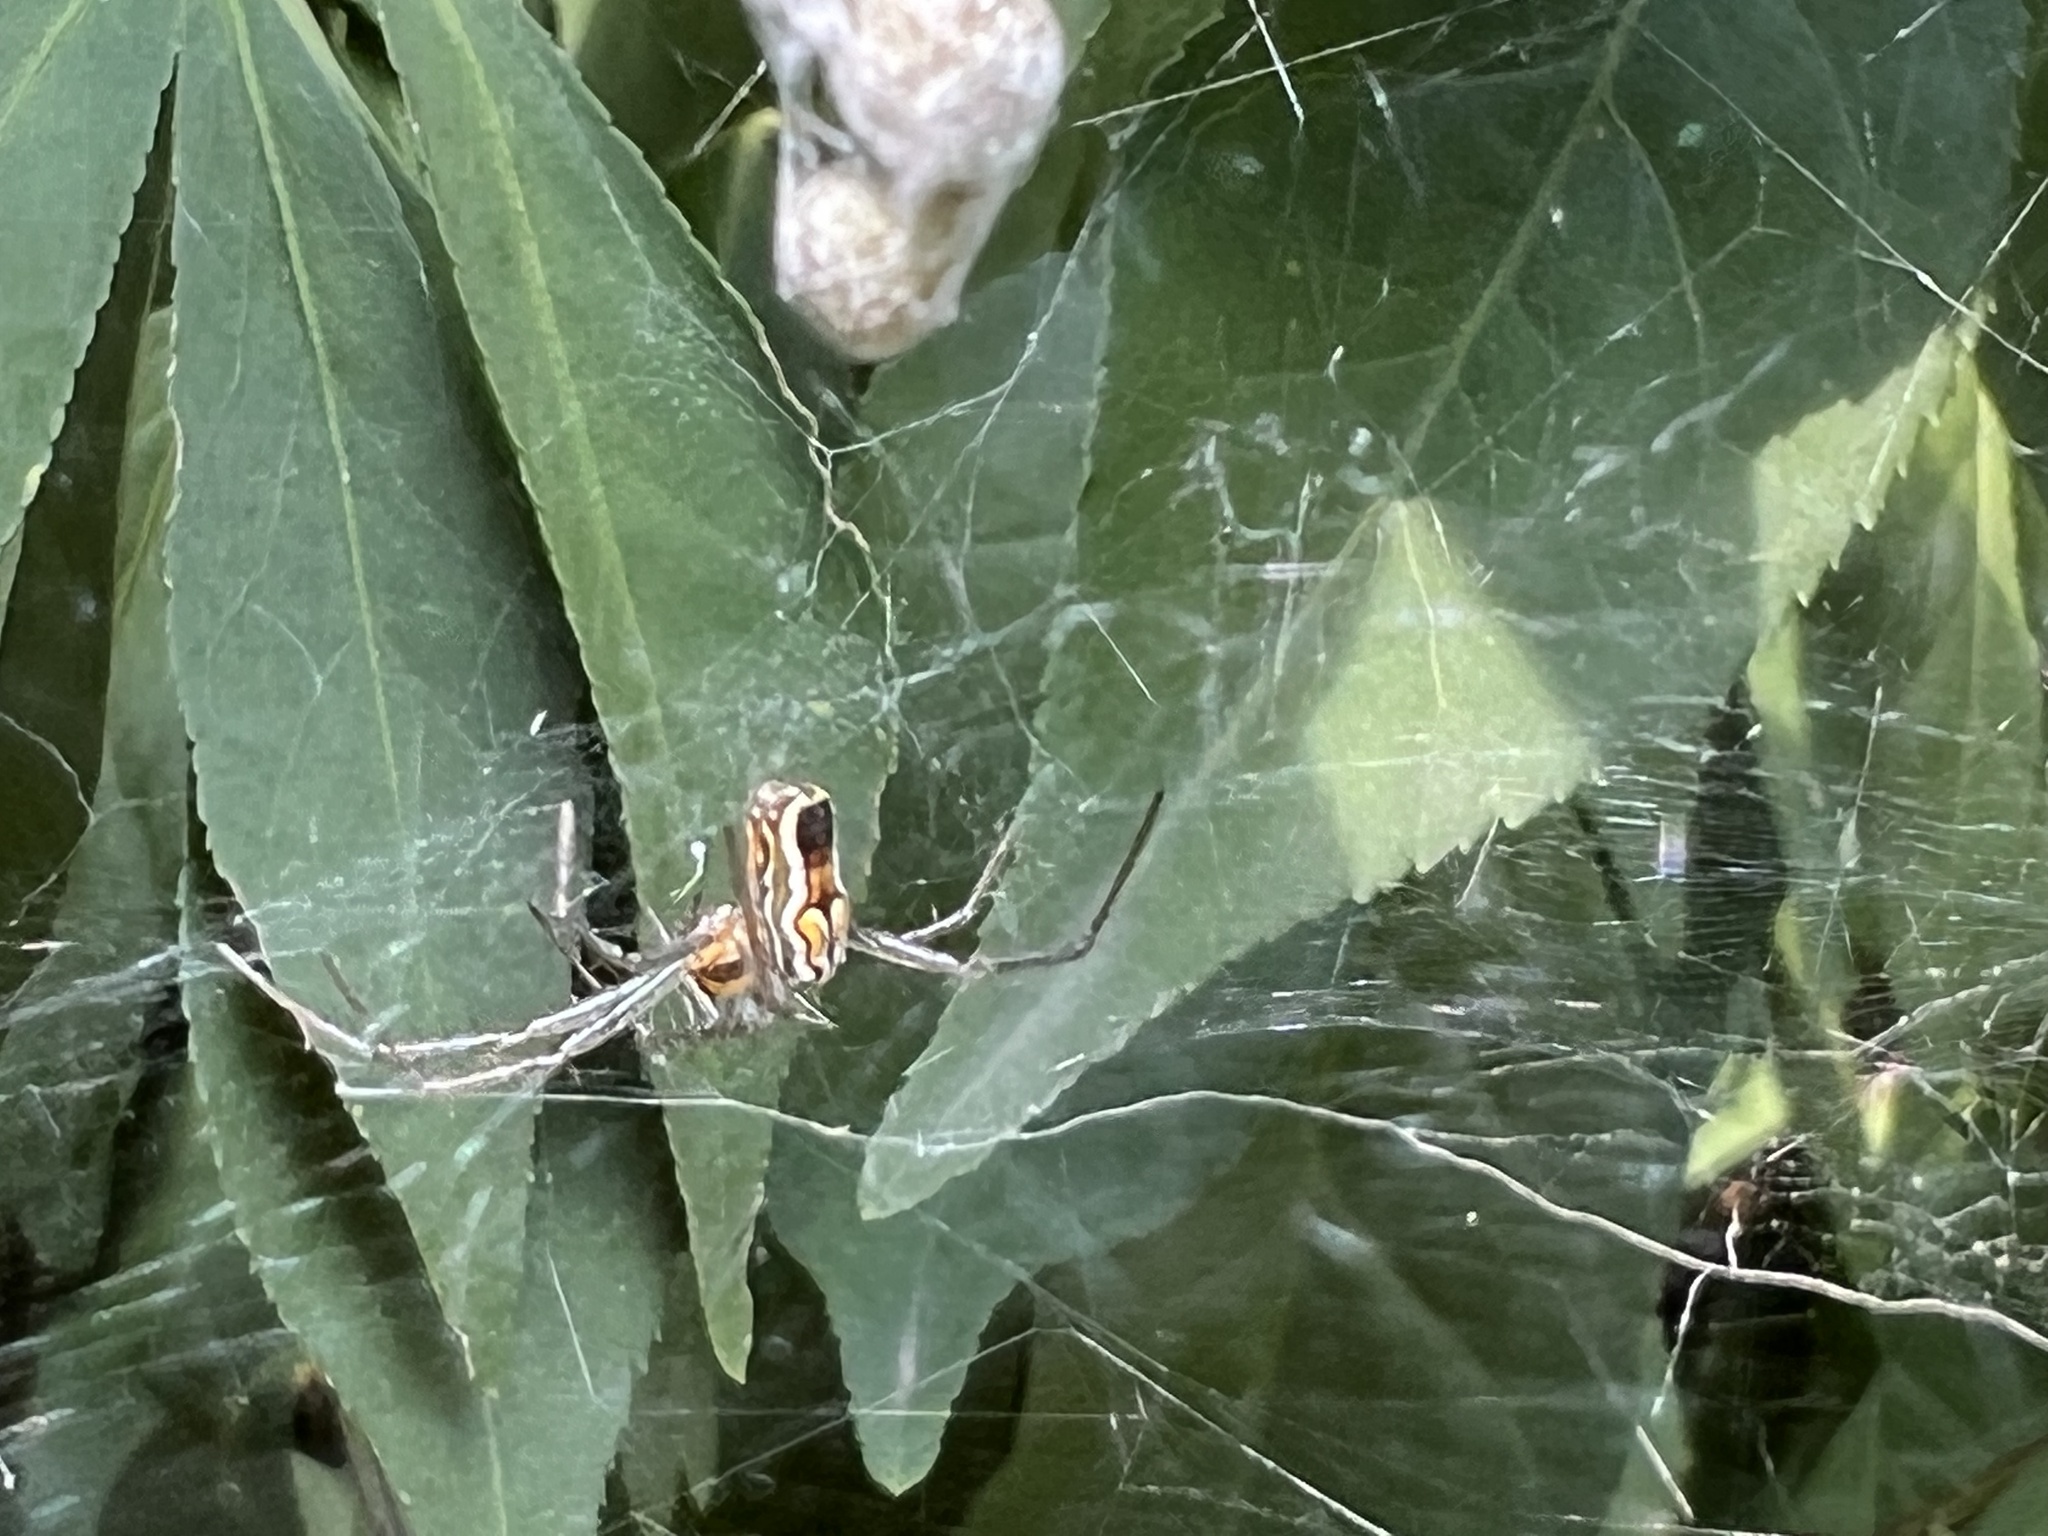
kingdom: Animalia
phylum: Arthropoda
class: Arachnida
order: Araneae
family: Araneidae
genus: Mecynogea
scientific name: Mecynogea lemniscata
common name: Orb weavers
